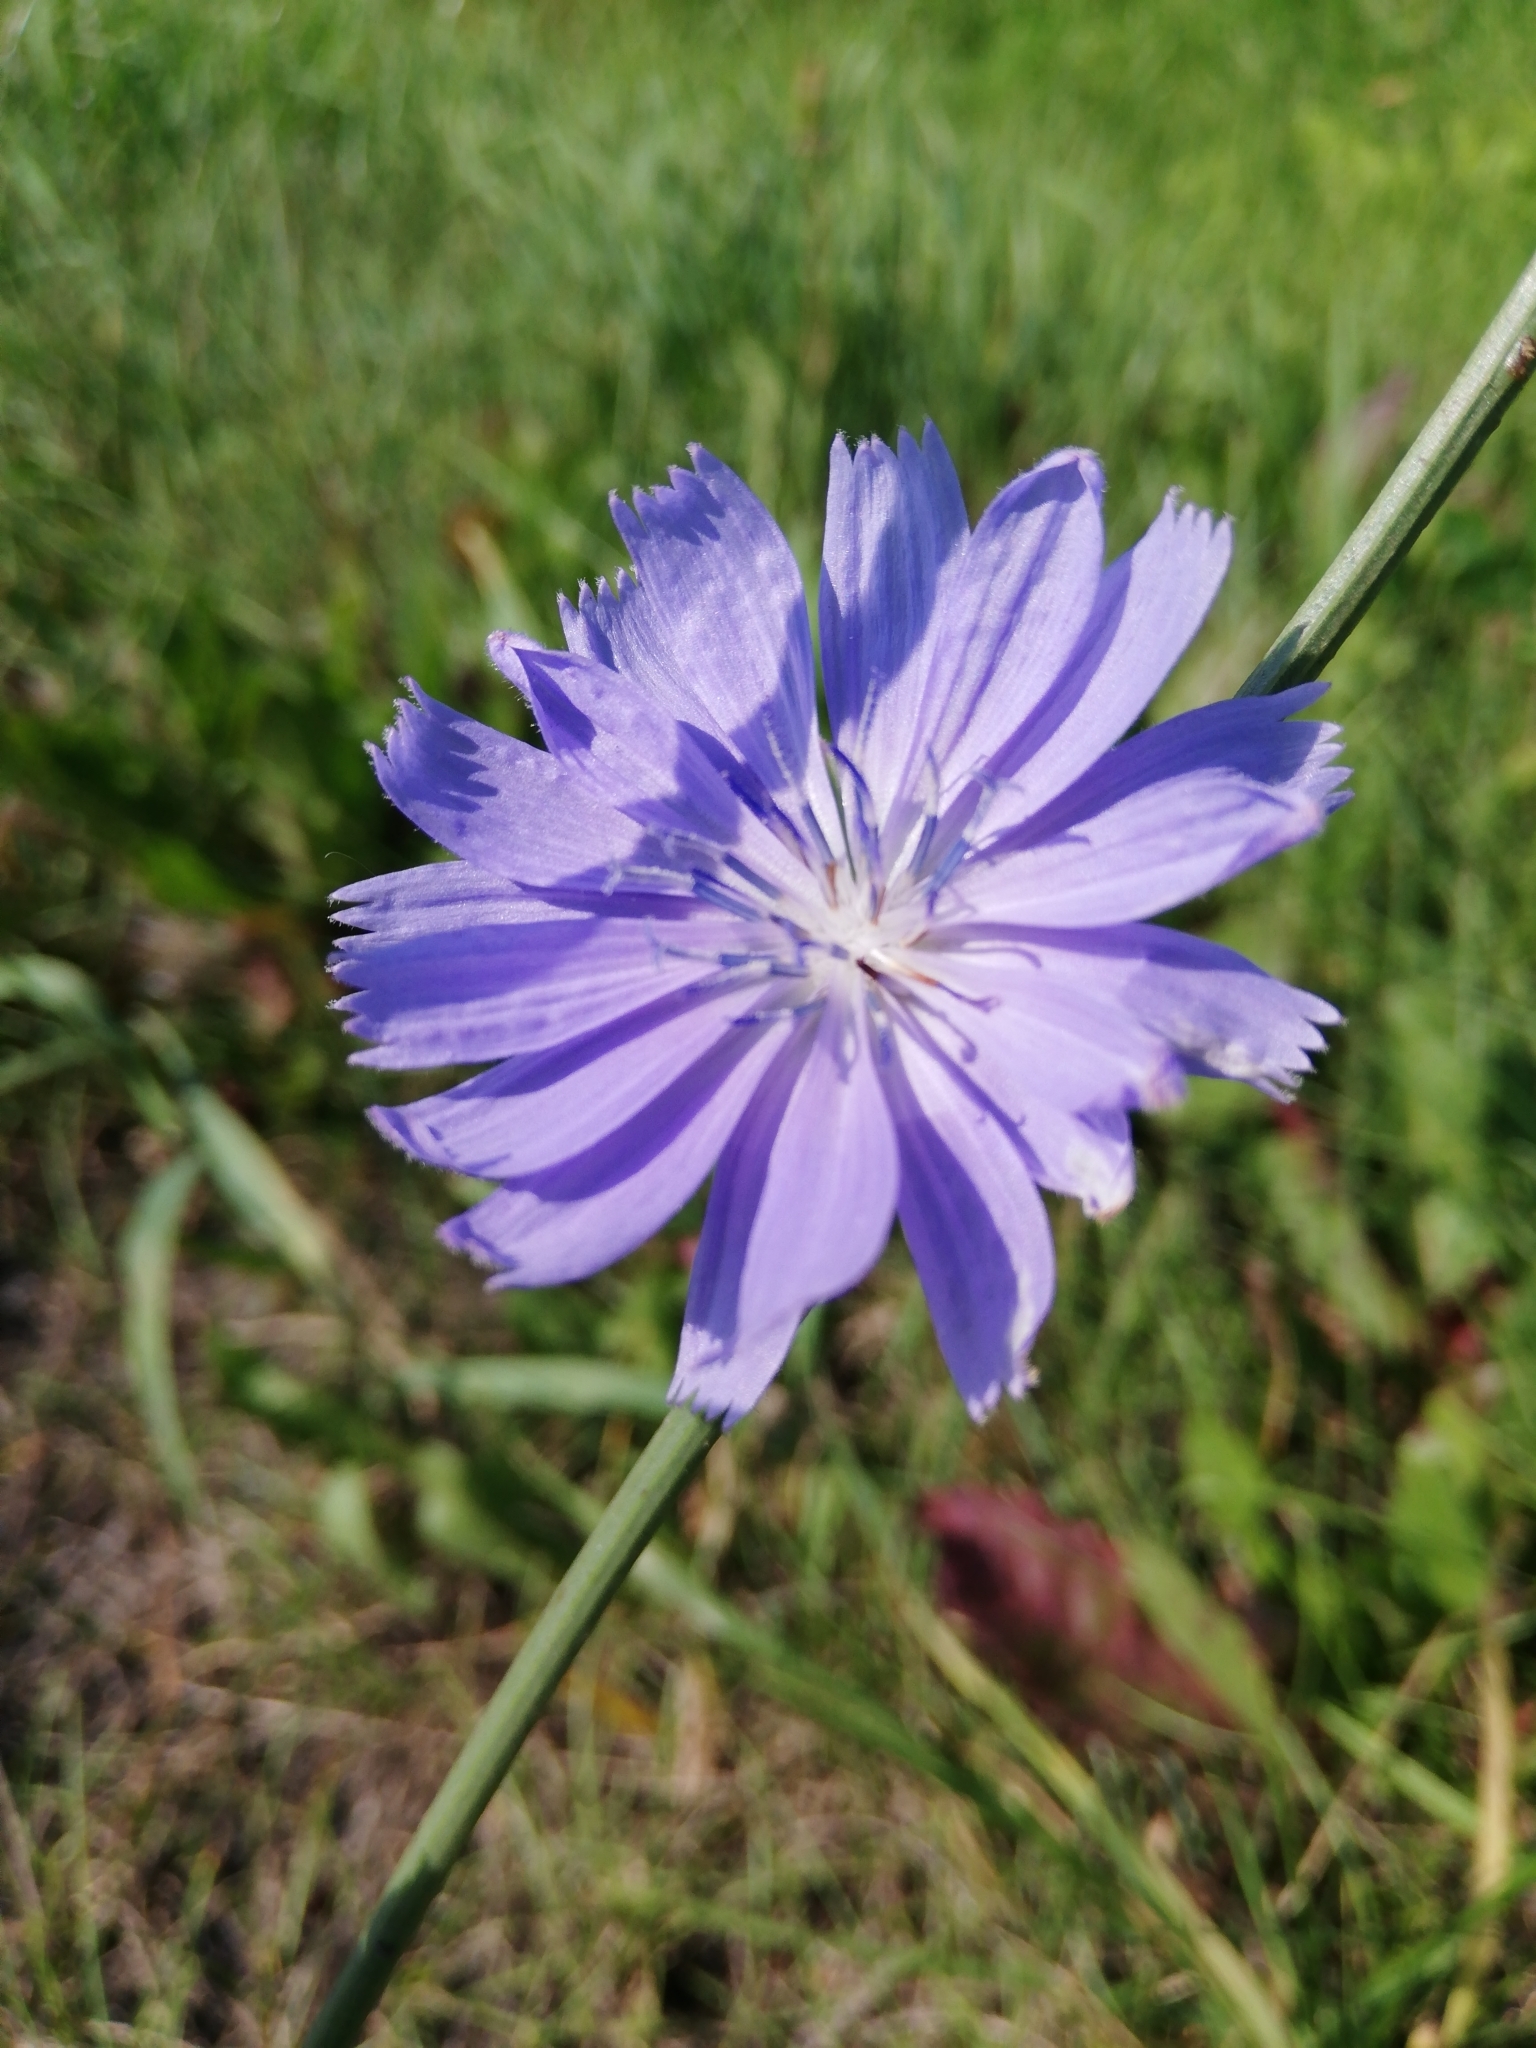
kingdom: Plantae
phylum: Tracheophyta
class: Magnoliopsida
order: Asterales
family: Asteraceae
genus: Cichorium
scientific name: Cichorium intybus
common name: Chicory
